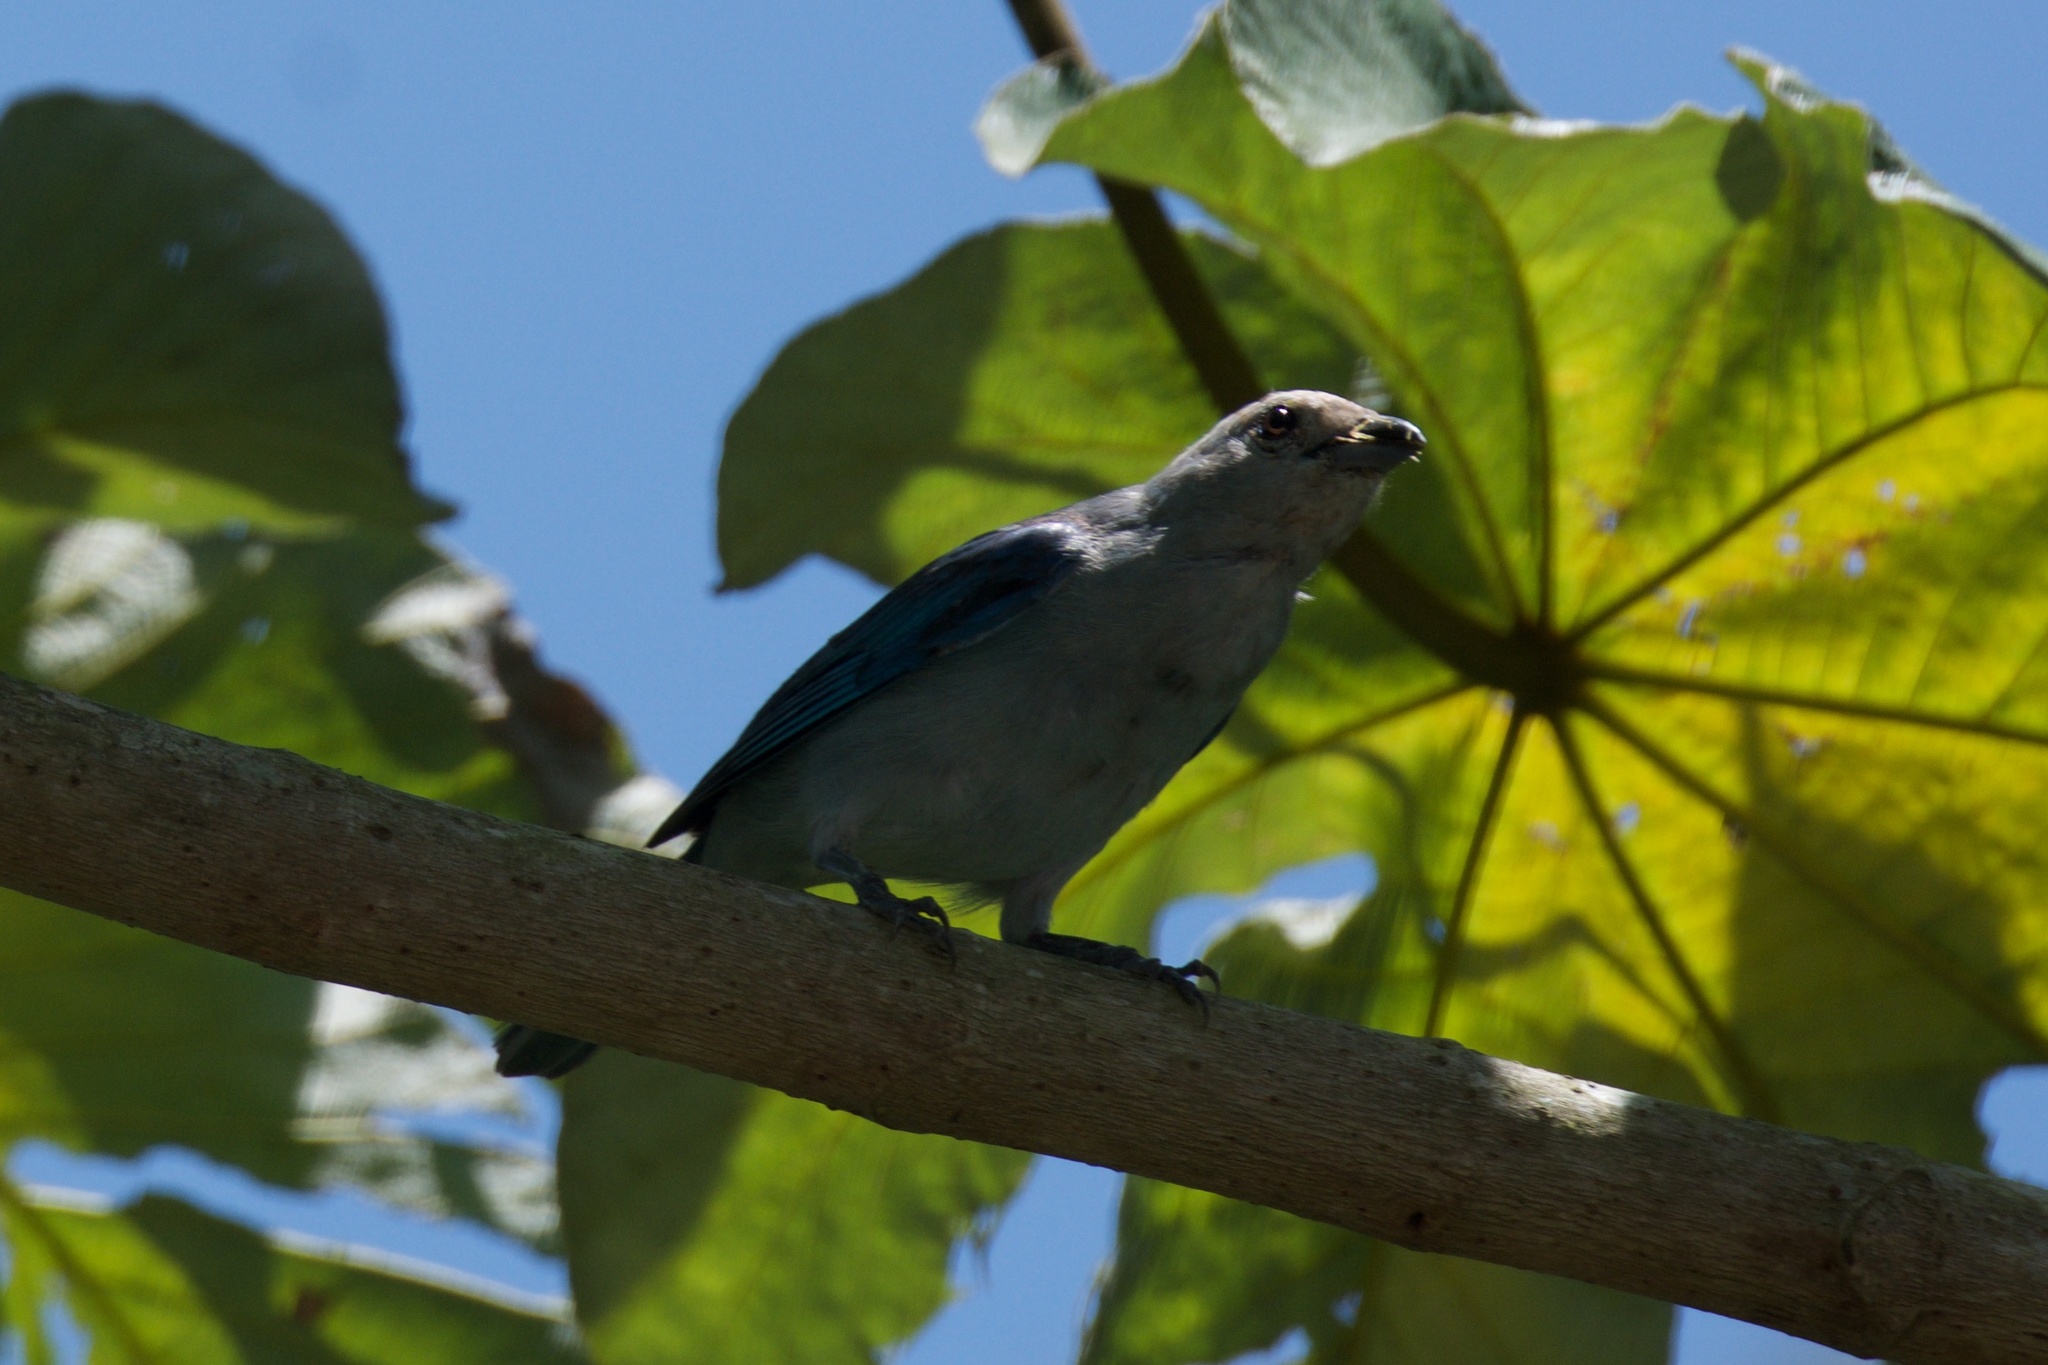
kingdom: Animalia
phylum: Chordata
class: Aves
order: Passeriformes
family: Thraupidae
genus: Thraupis
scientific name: Thraupis episcopus
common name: Blue-grey tanager
